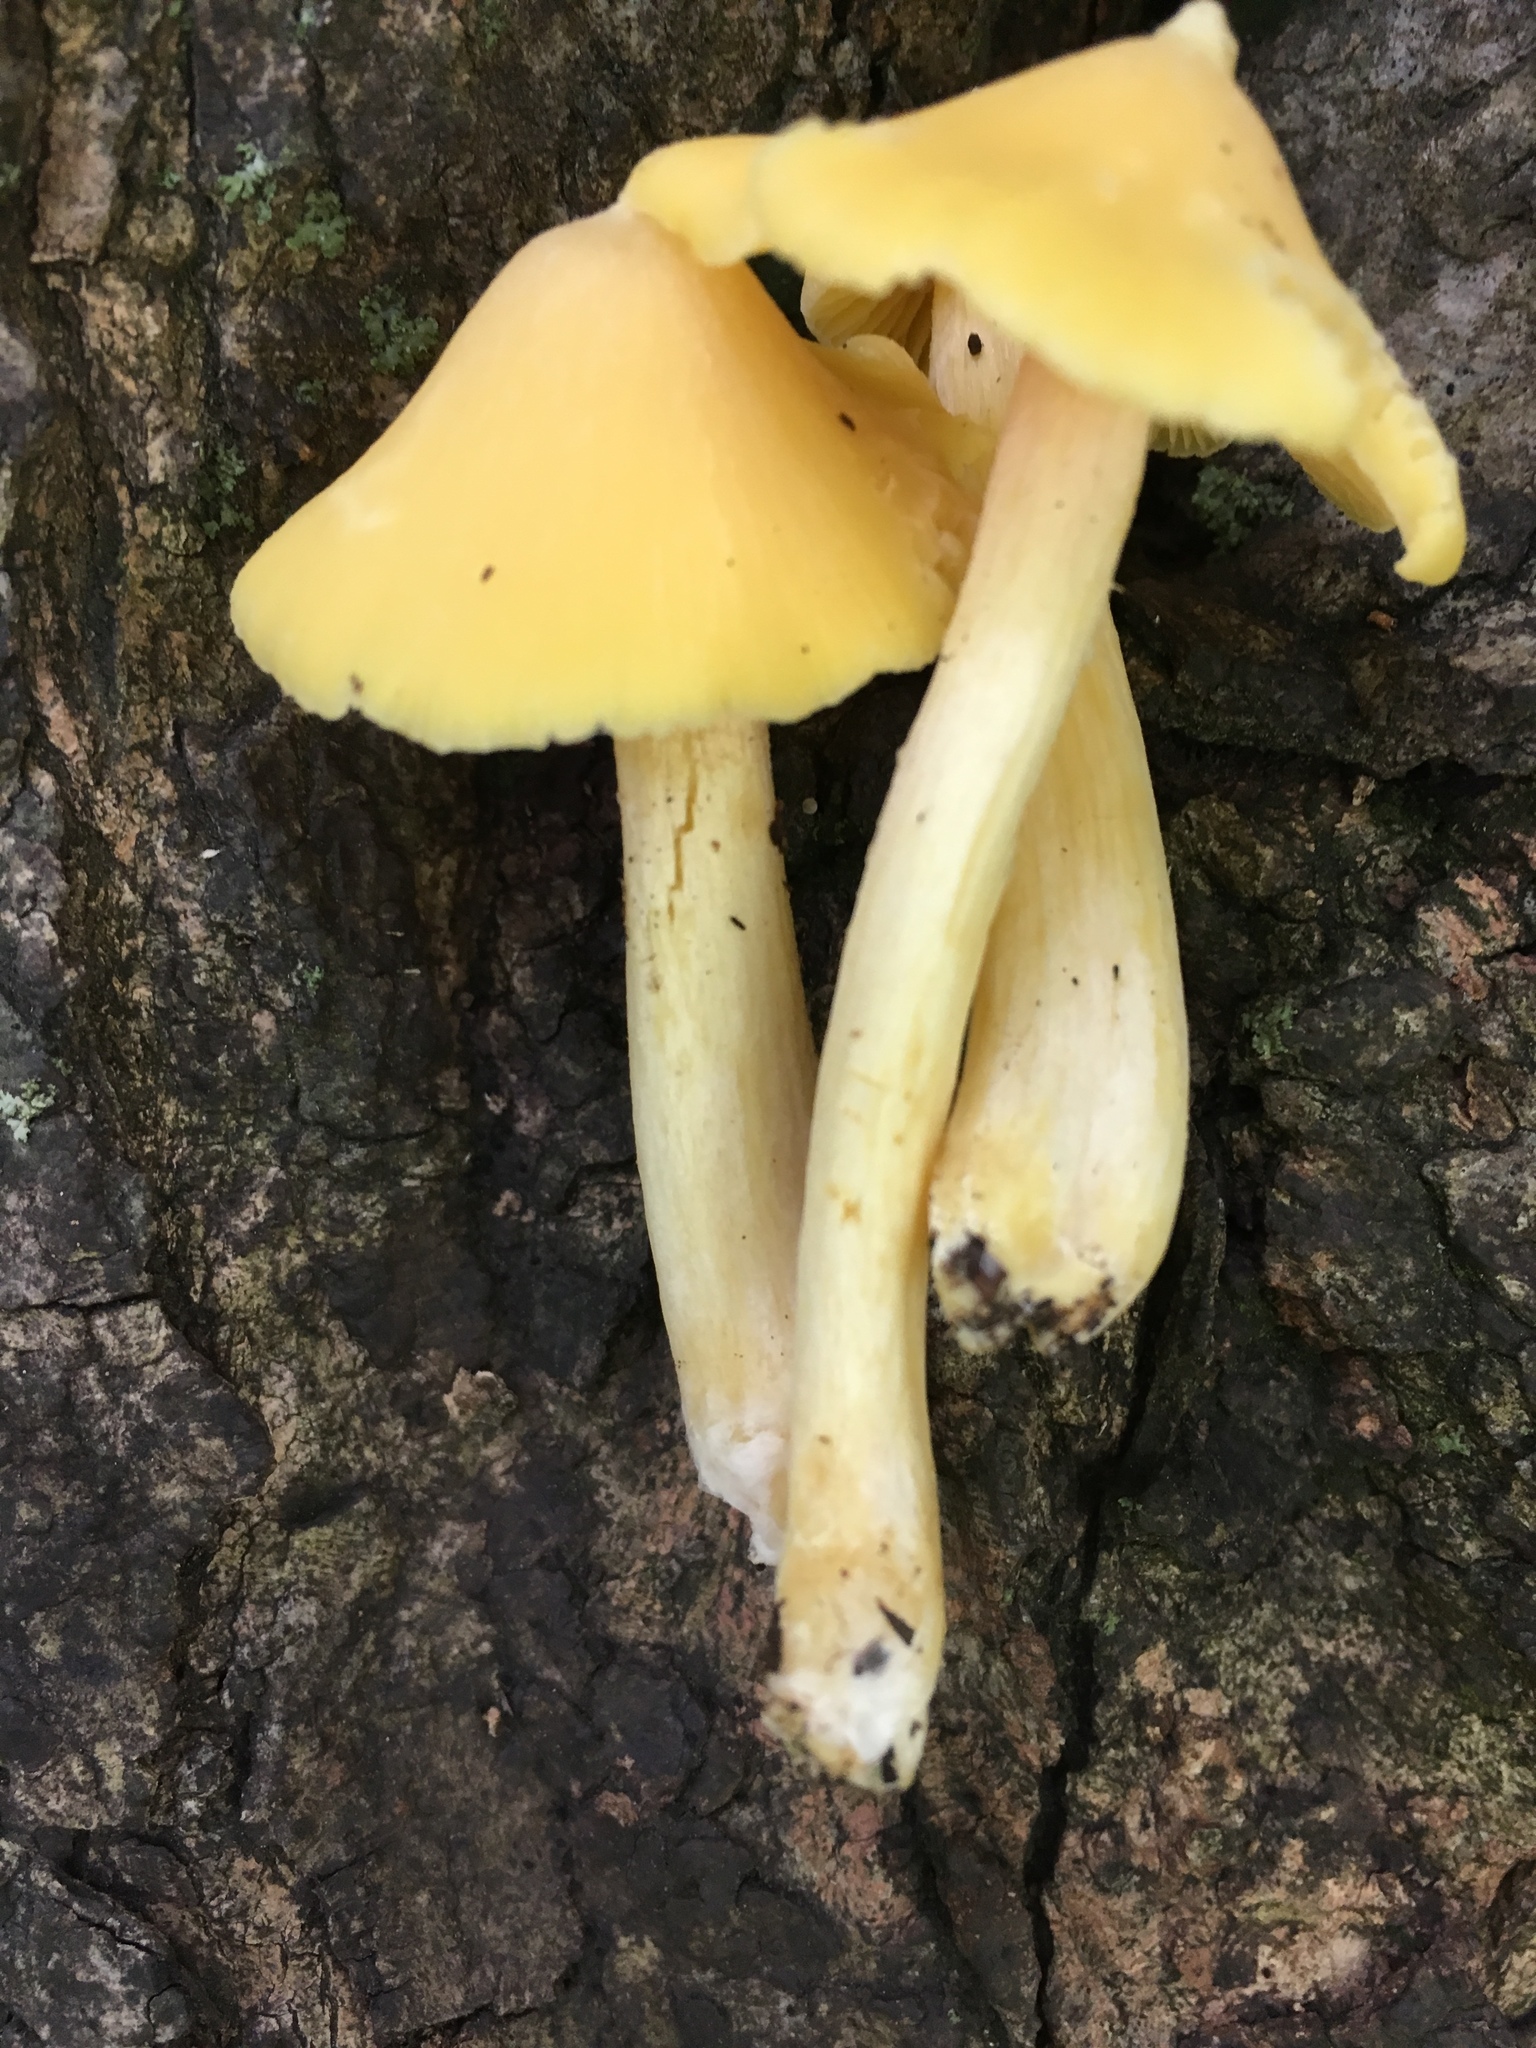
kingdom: Fungi
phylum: Basidiomycota
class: Agaricomycetes
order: Agaricales
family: Entolomataceae
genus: Entoloma
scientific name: Entoloma murrayi
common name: Yellow unicorn entoloma
